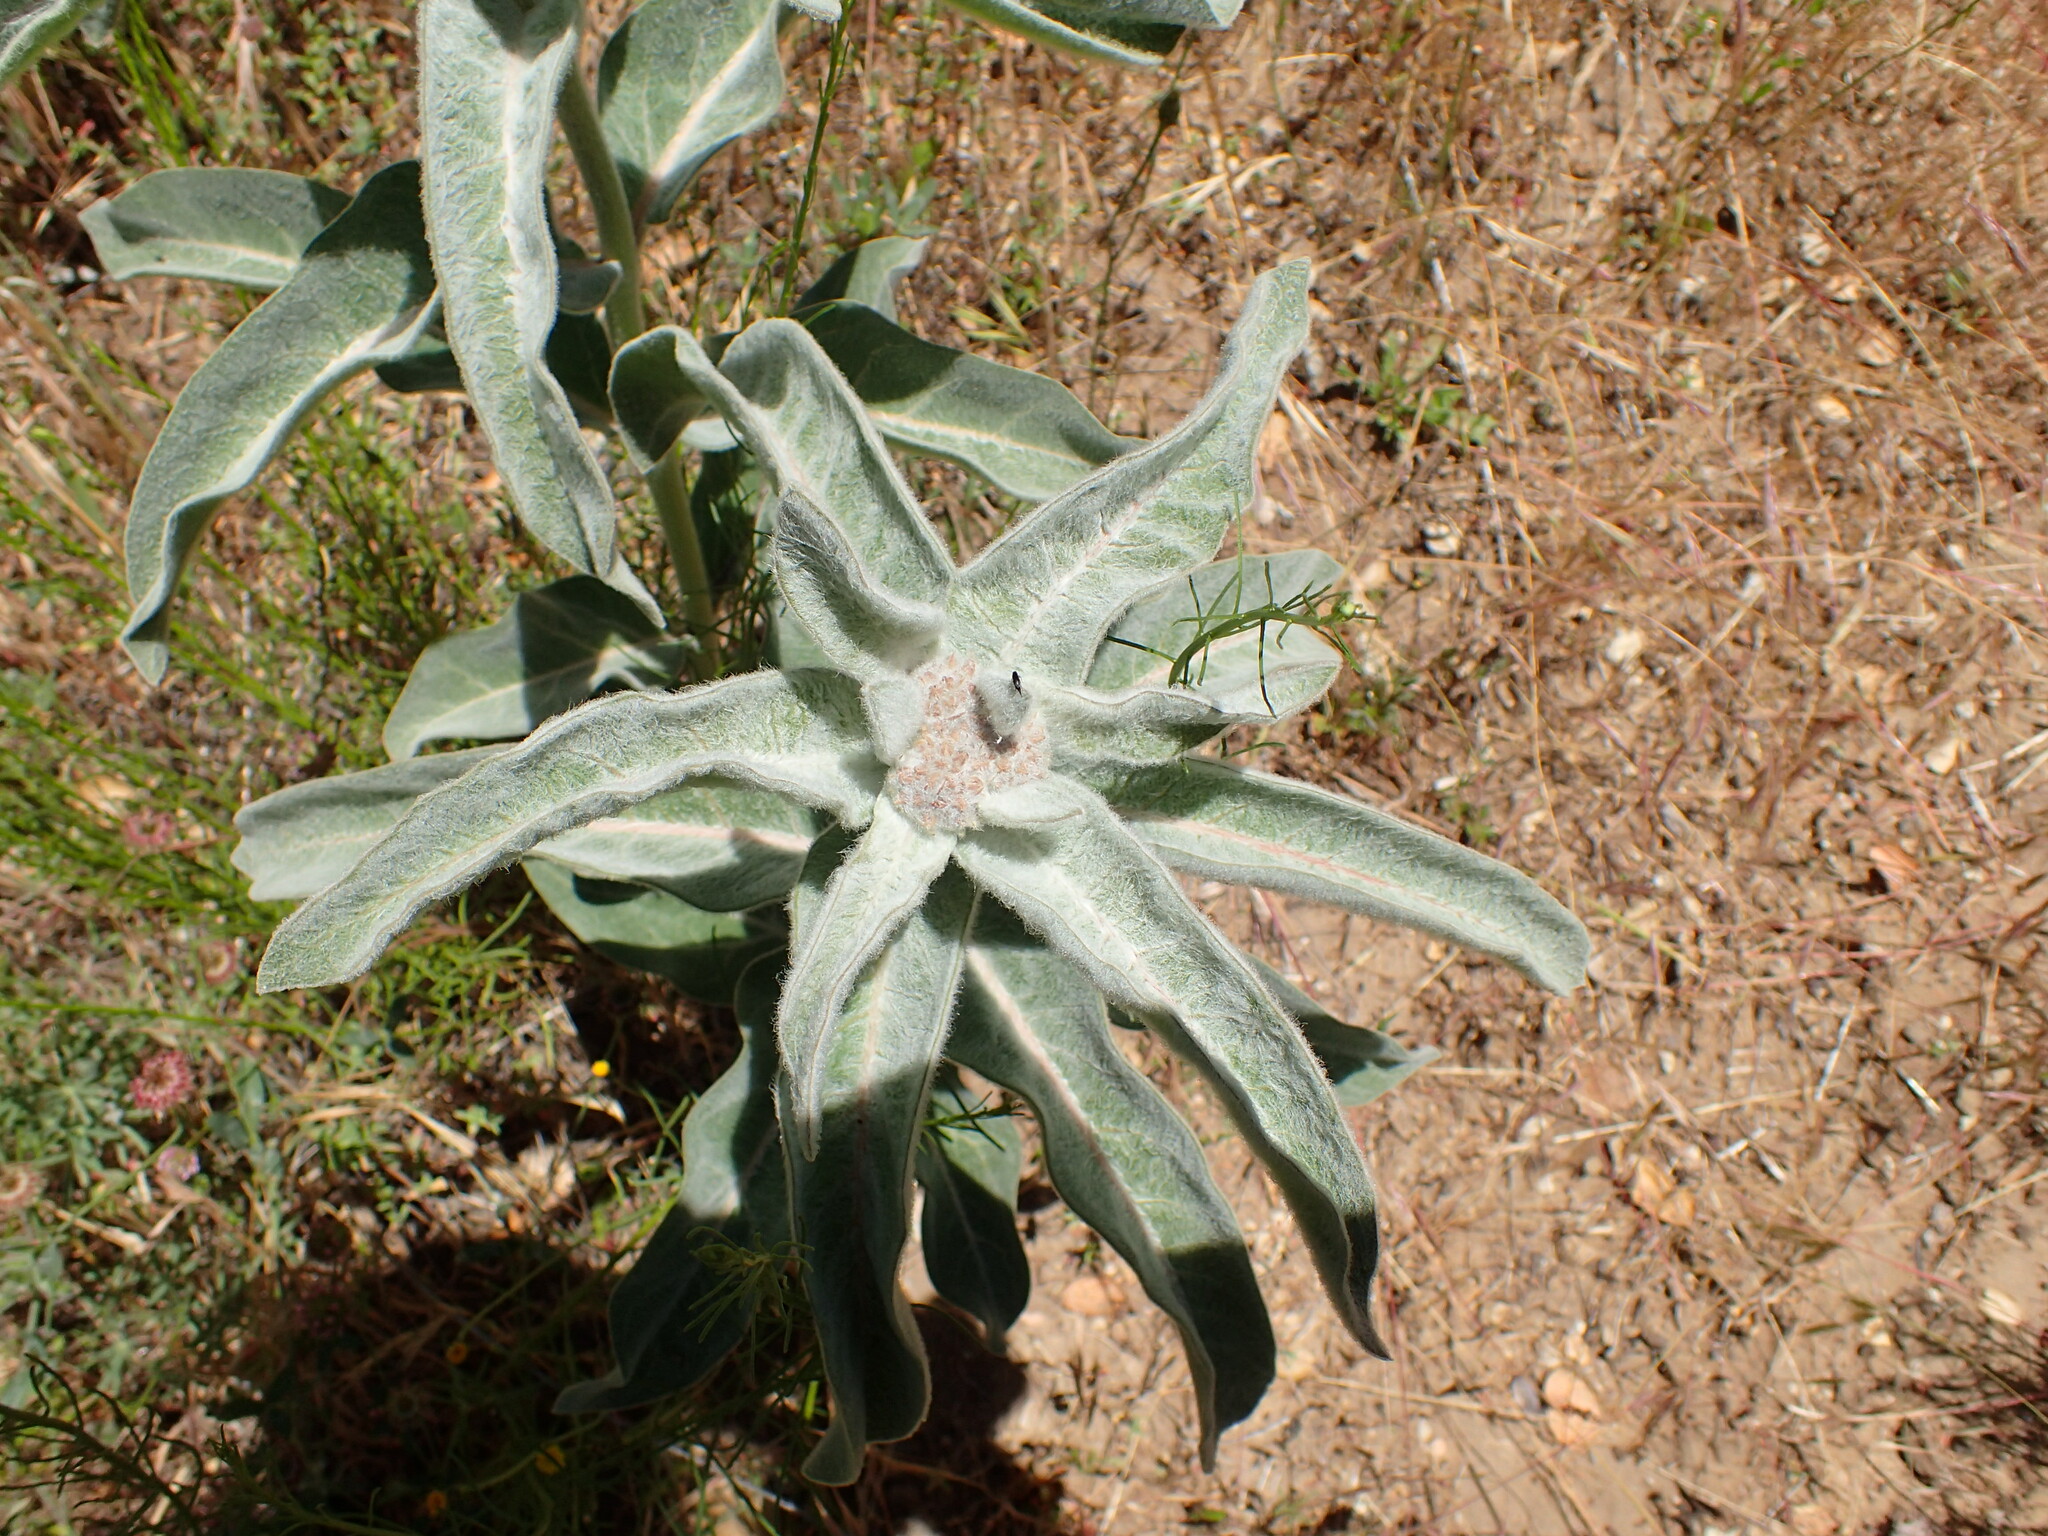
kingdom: Plantae
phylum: Tracheophyta
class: Magnoliopsida
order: Gentianales
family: Apocynaceae
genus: Asclepias
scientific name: Asclepias eriocarpa
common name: Indian milkweed
